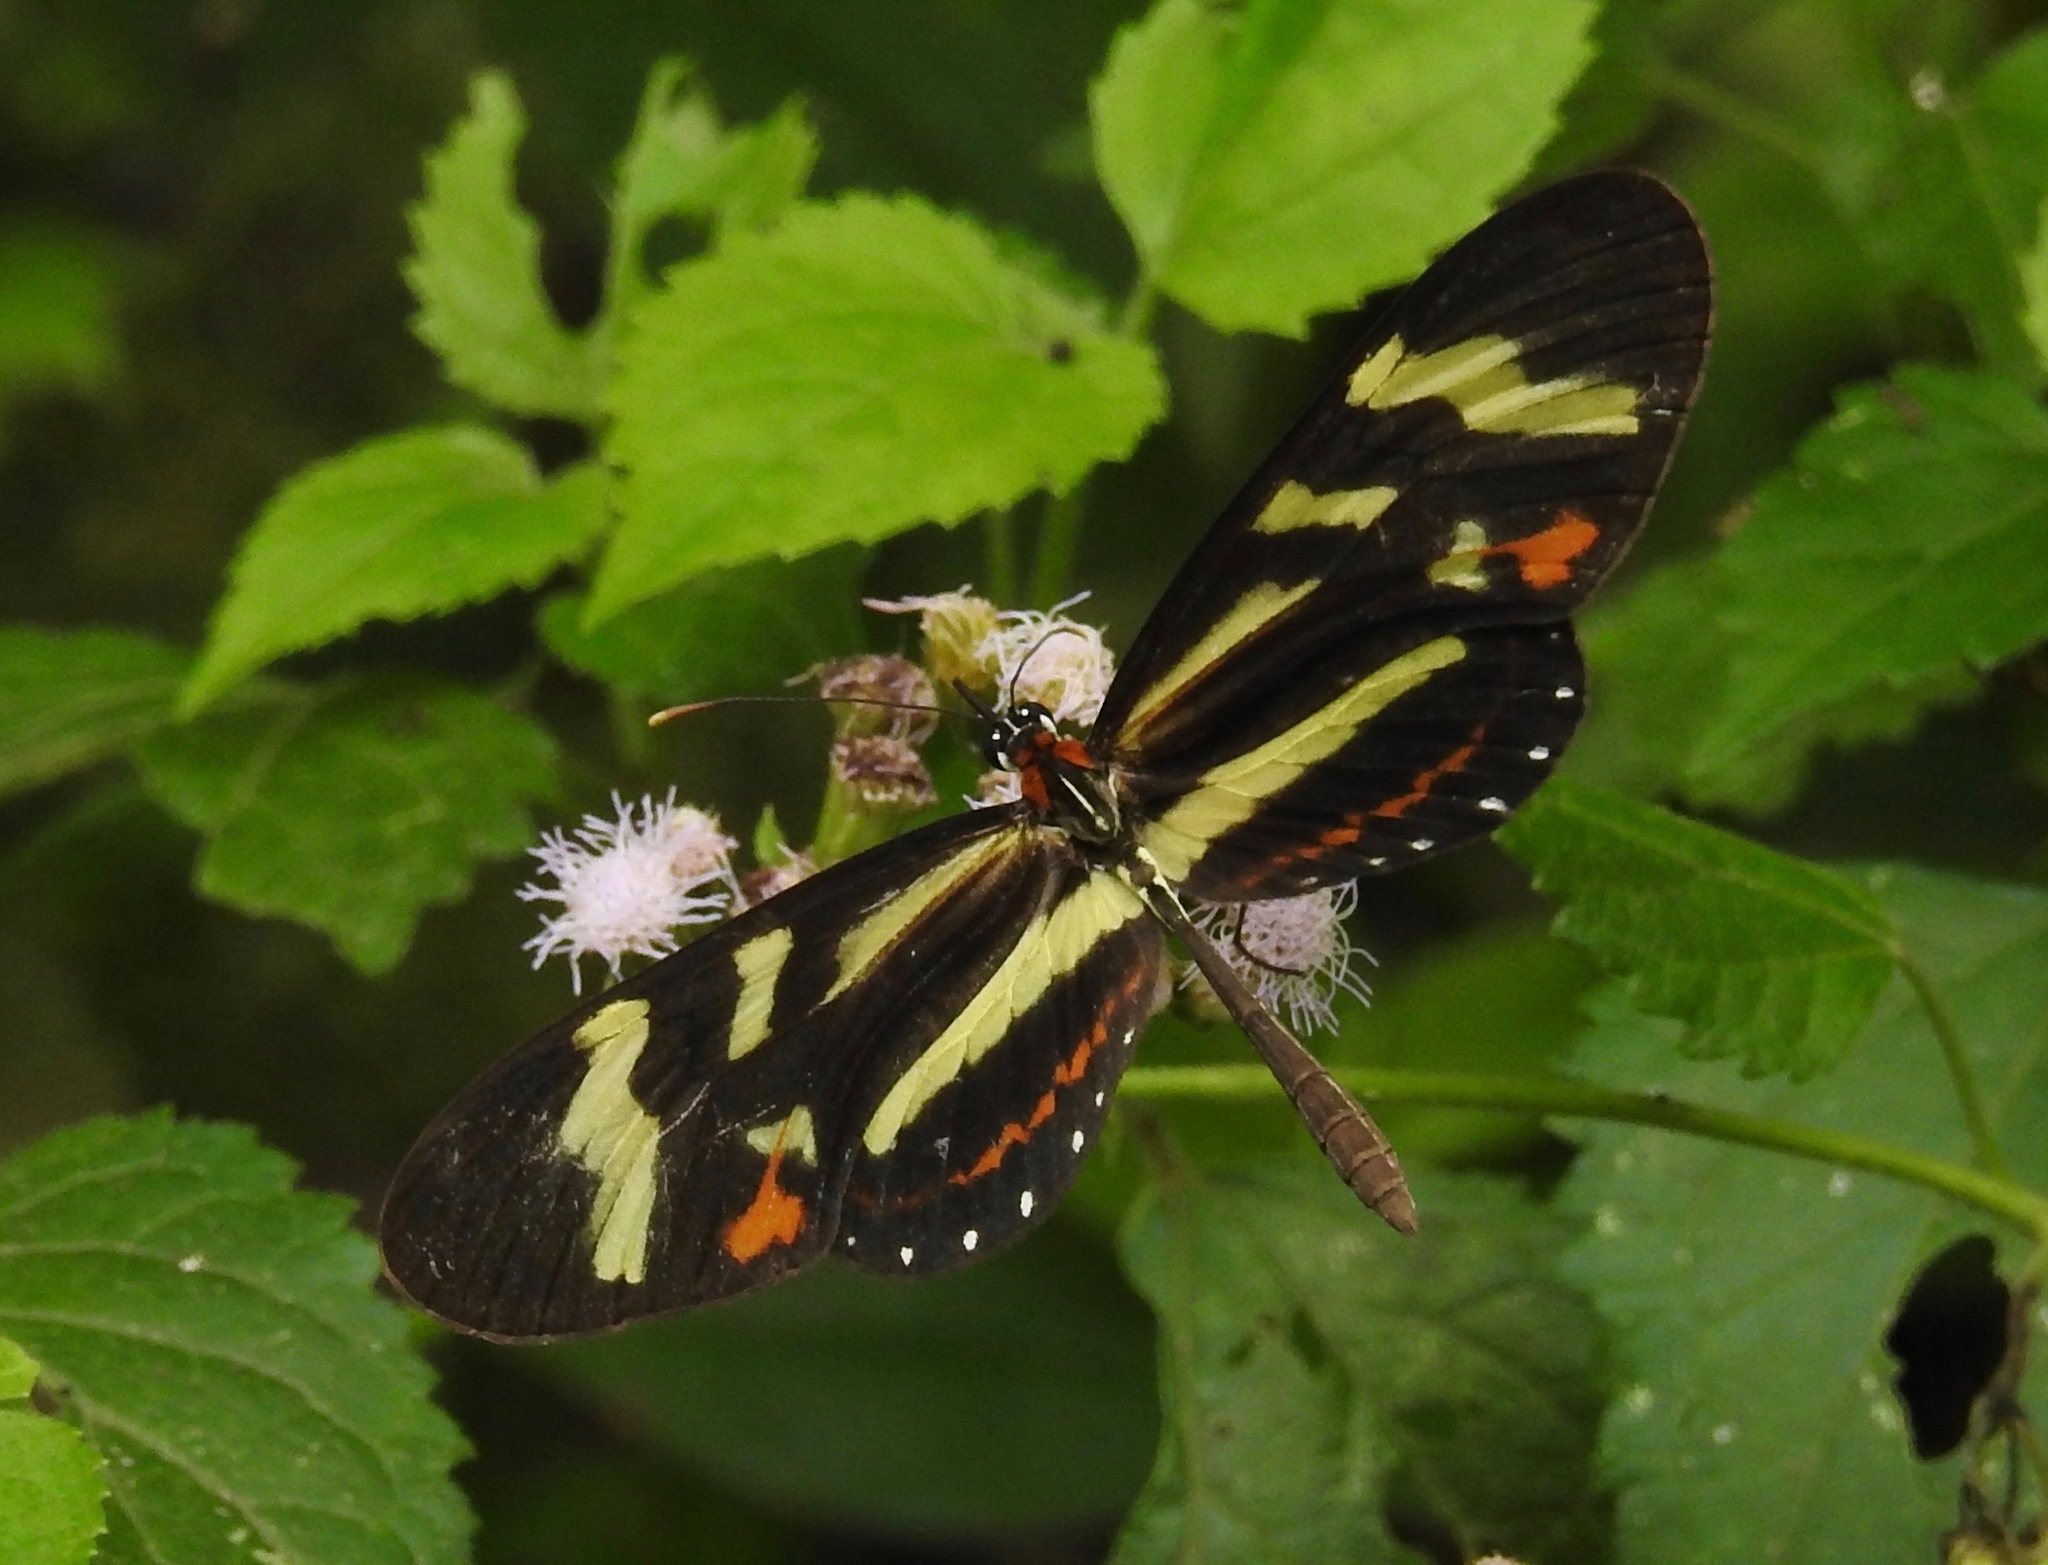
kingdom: Animalia
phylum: Arthropoda
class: Insecta
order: Lepidoptera
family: Nymphalidae
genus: Mechanitis
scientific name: Mechanitis menapis
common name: Menapis tigerwing
